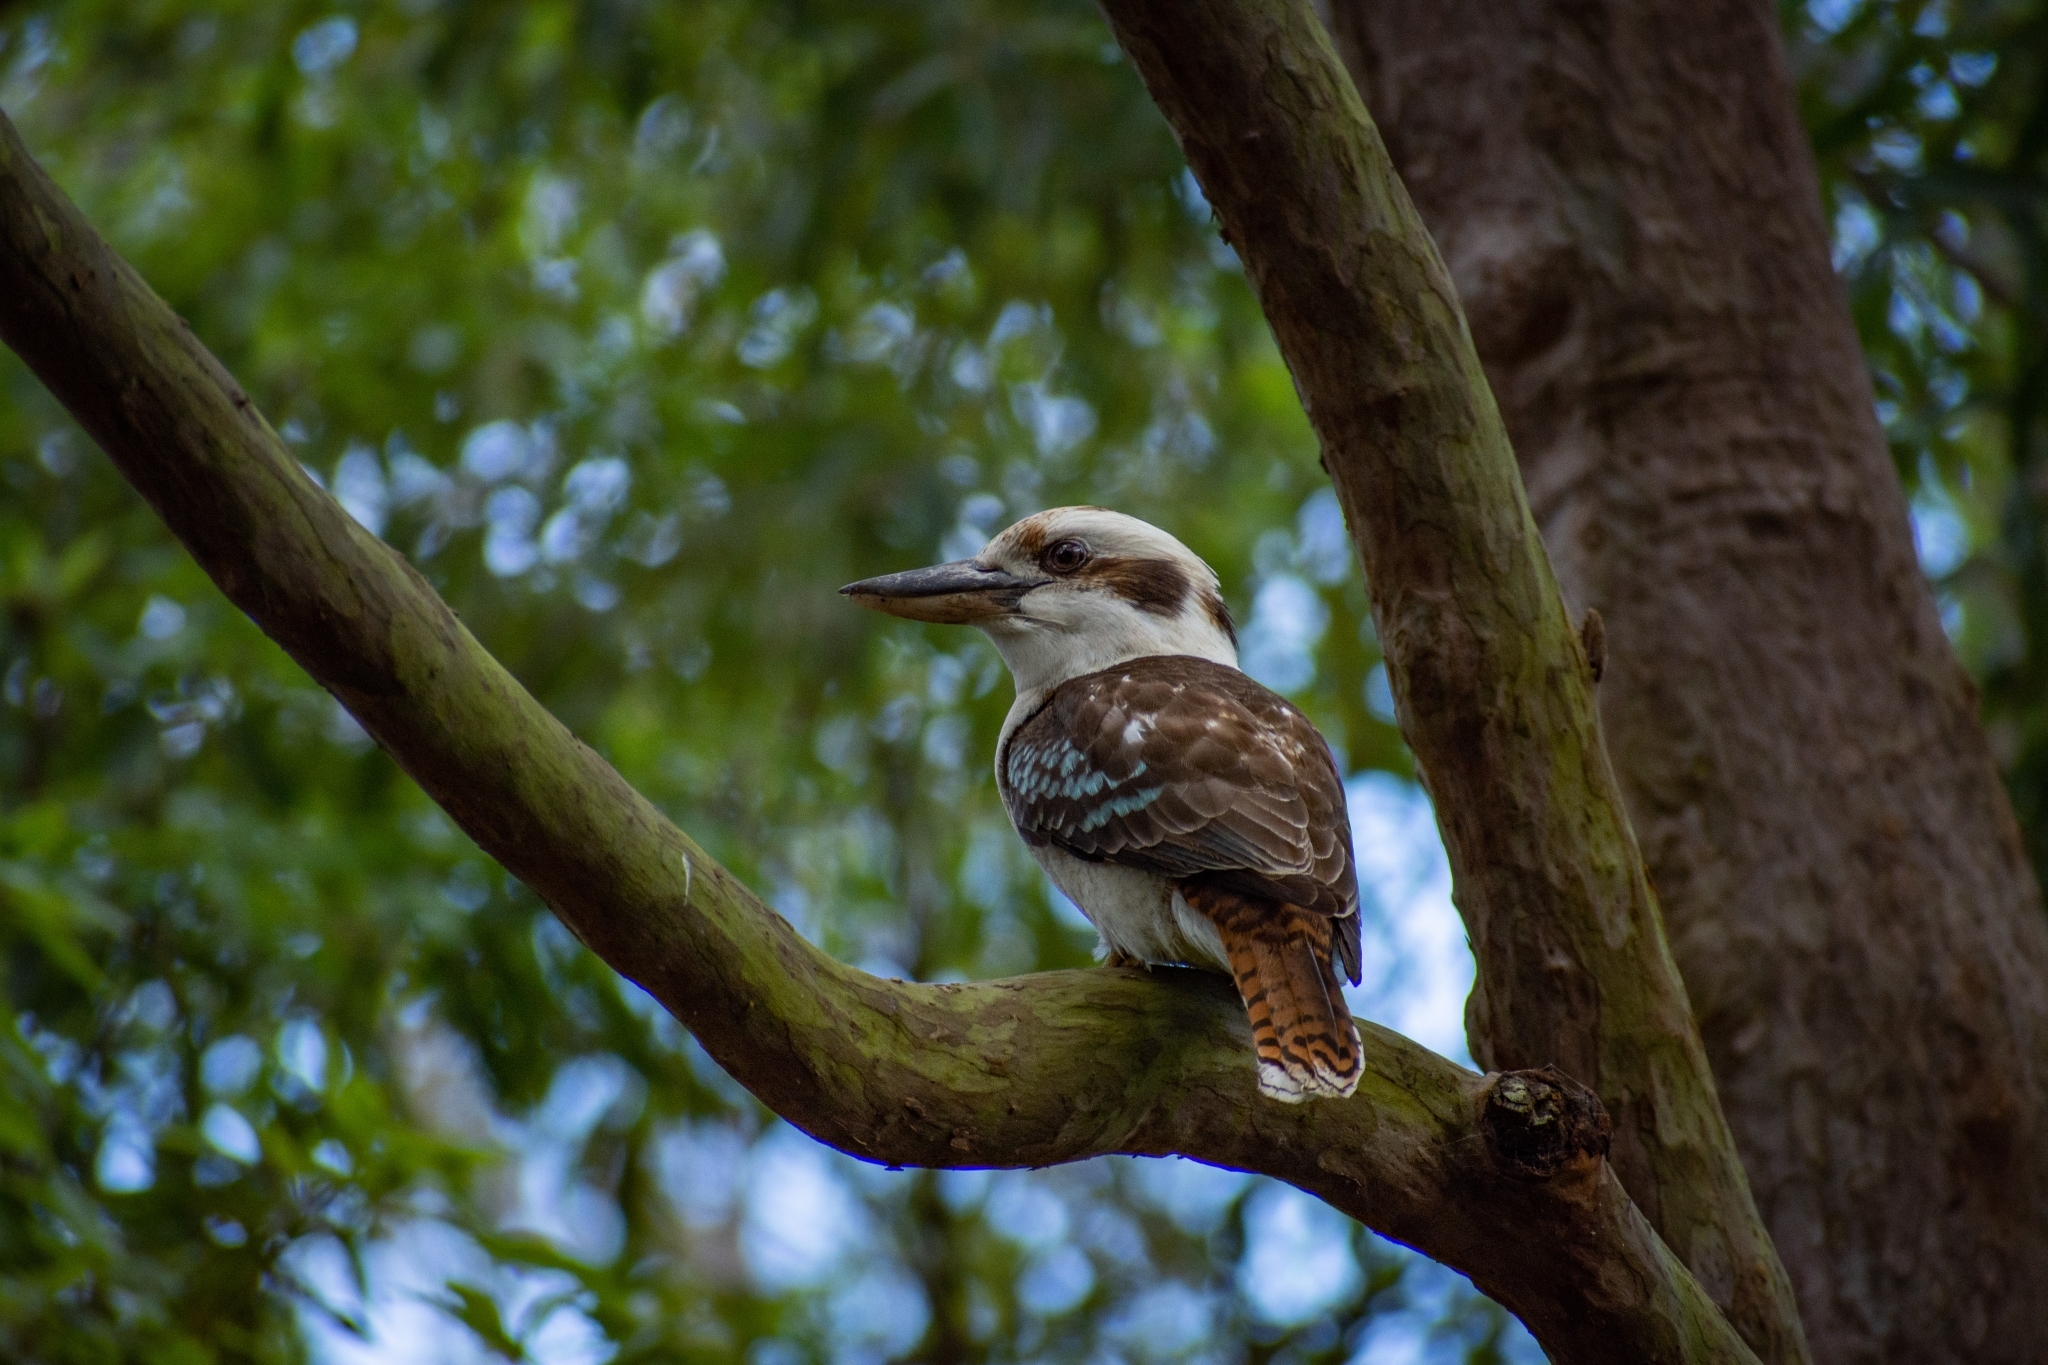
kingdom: Animalia
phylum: Chordata
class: Aves
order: Coraciiformes
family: Alcedinidae
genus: Dacelo
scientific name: Dacelo novaeguineae
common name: Laughing kookaburra
